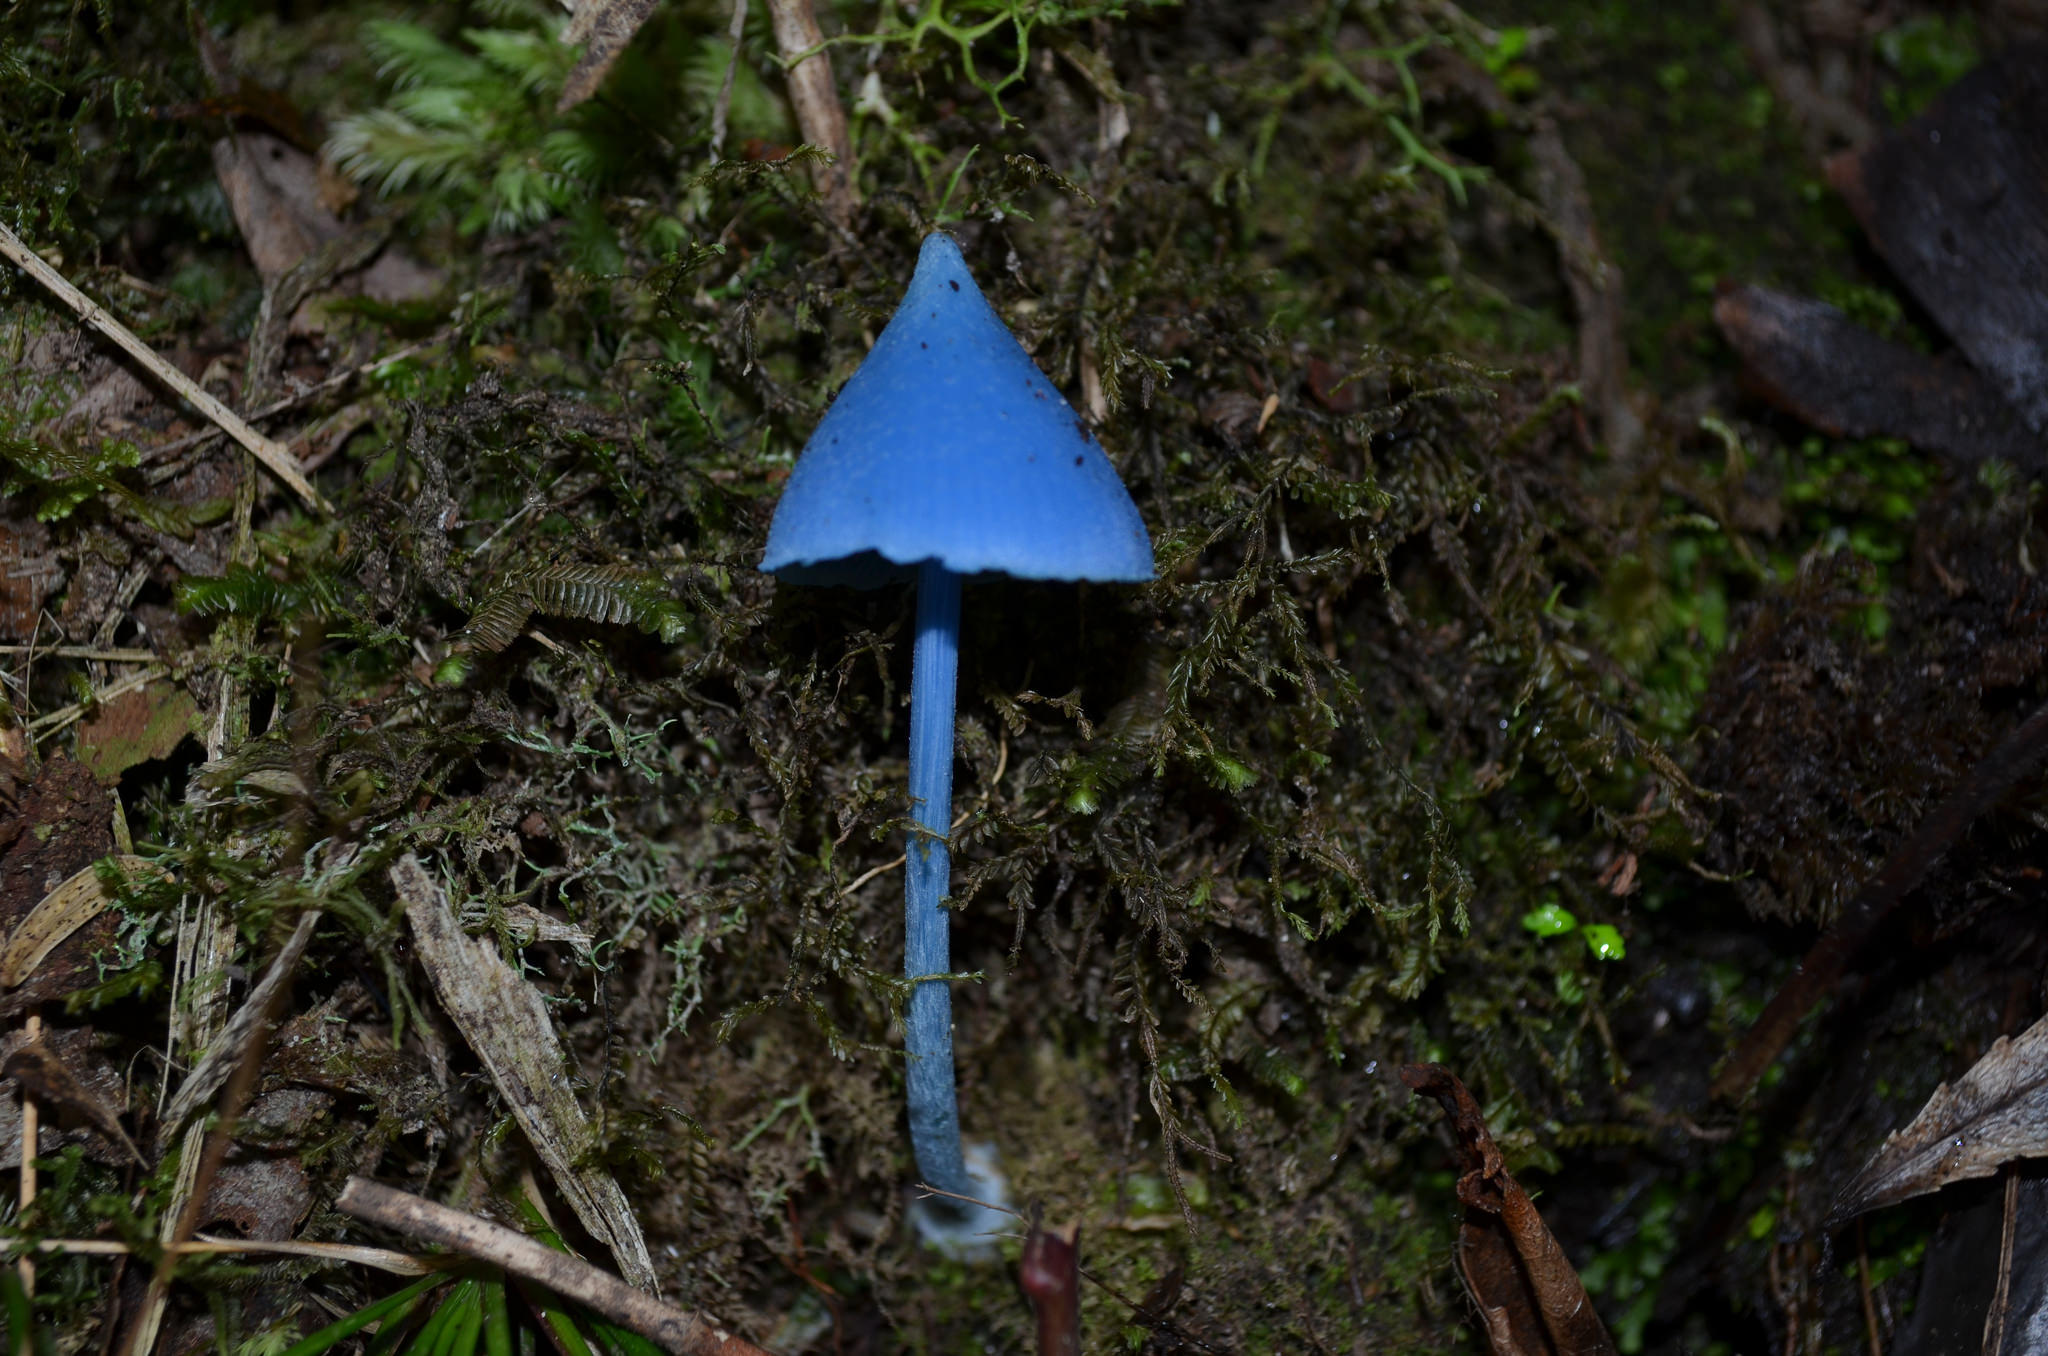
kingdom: Fungi
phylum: Basidiomycota
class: Agaricomycetes
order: Agaricales
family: Entolomataceae
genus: Entoloma
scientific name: Entoloma hochstetteri
